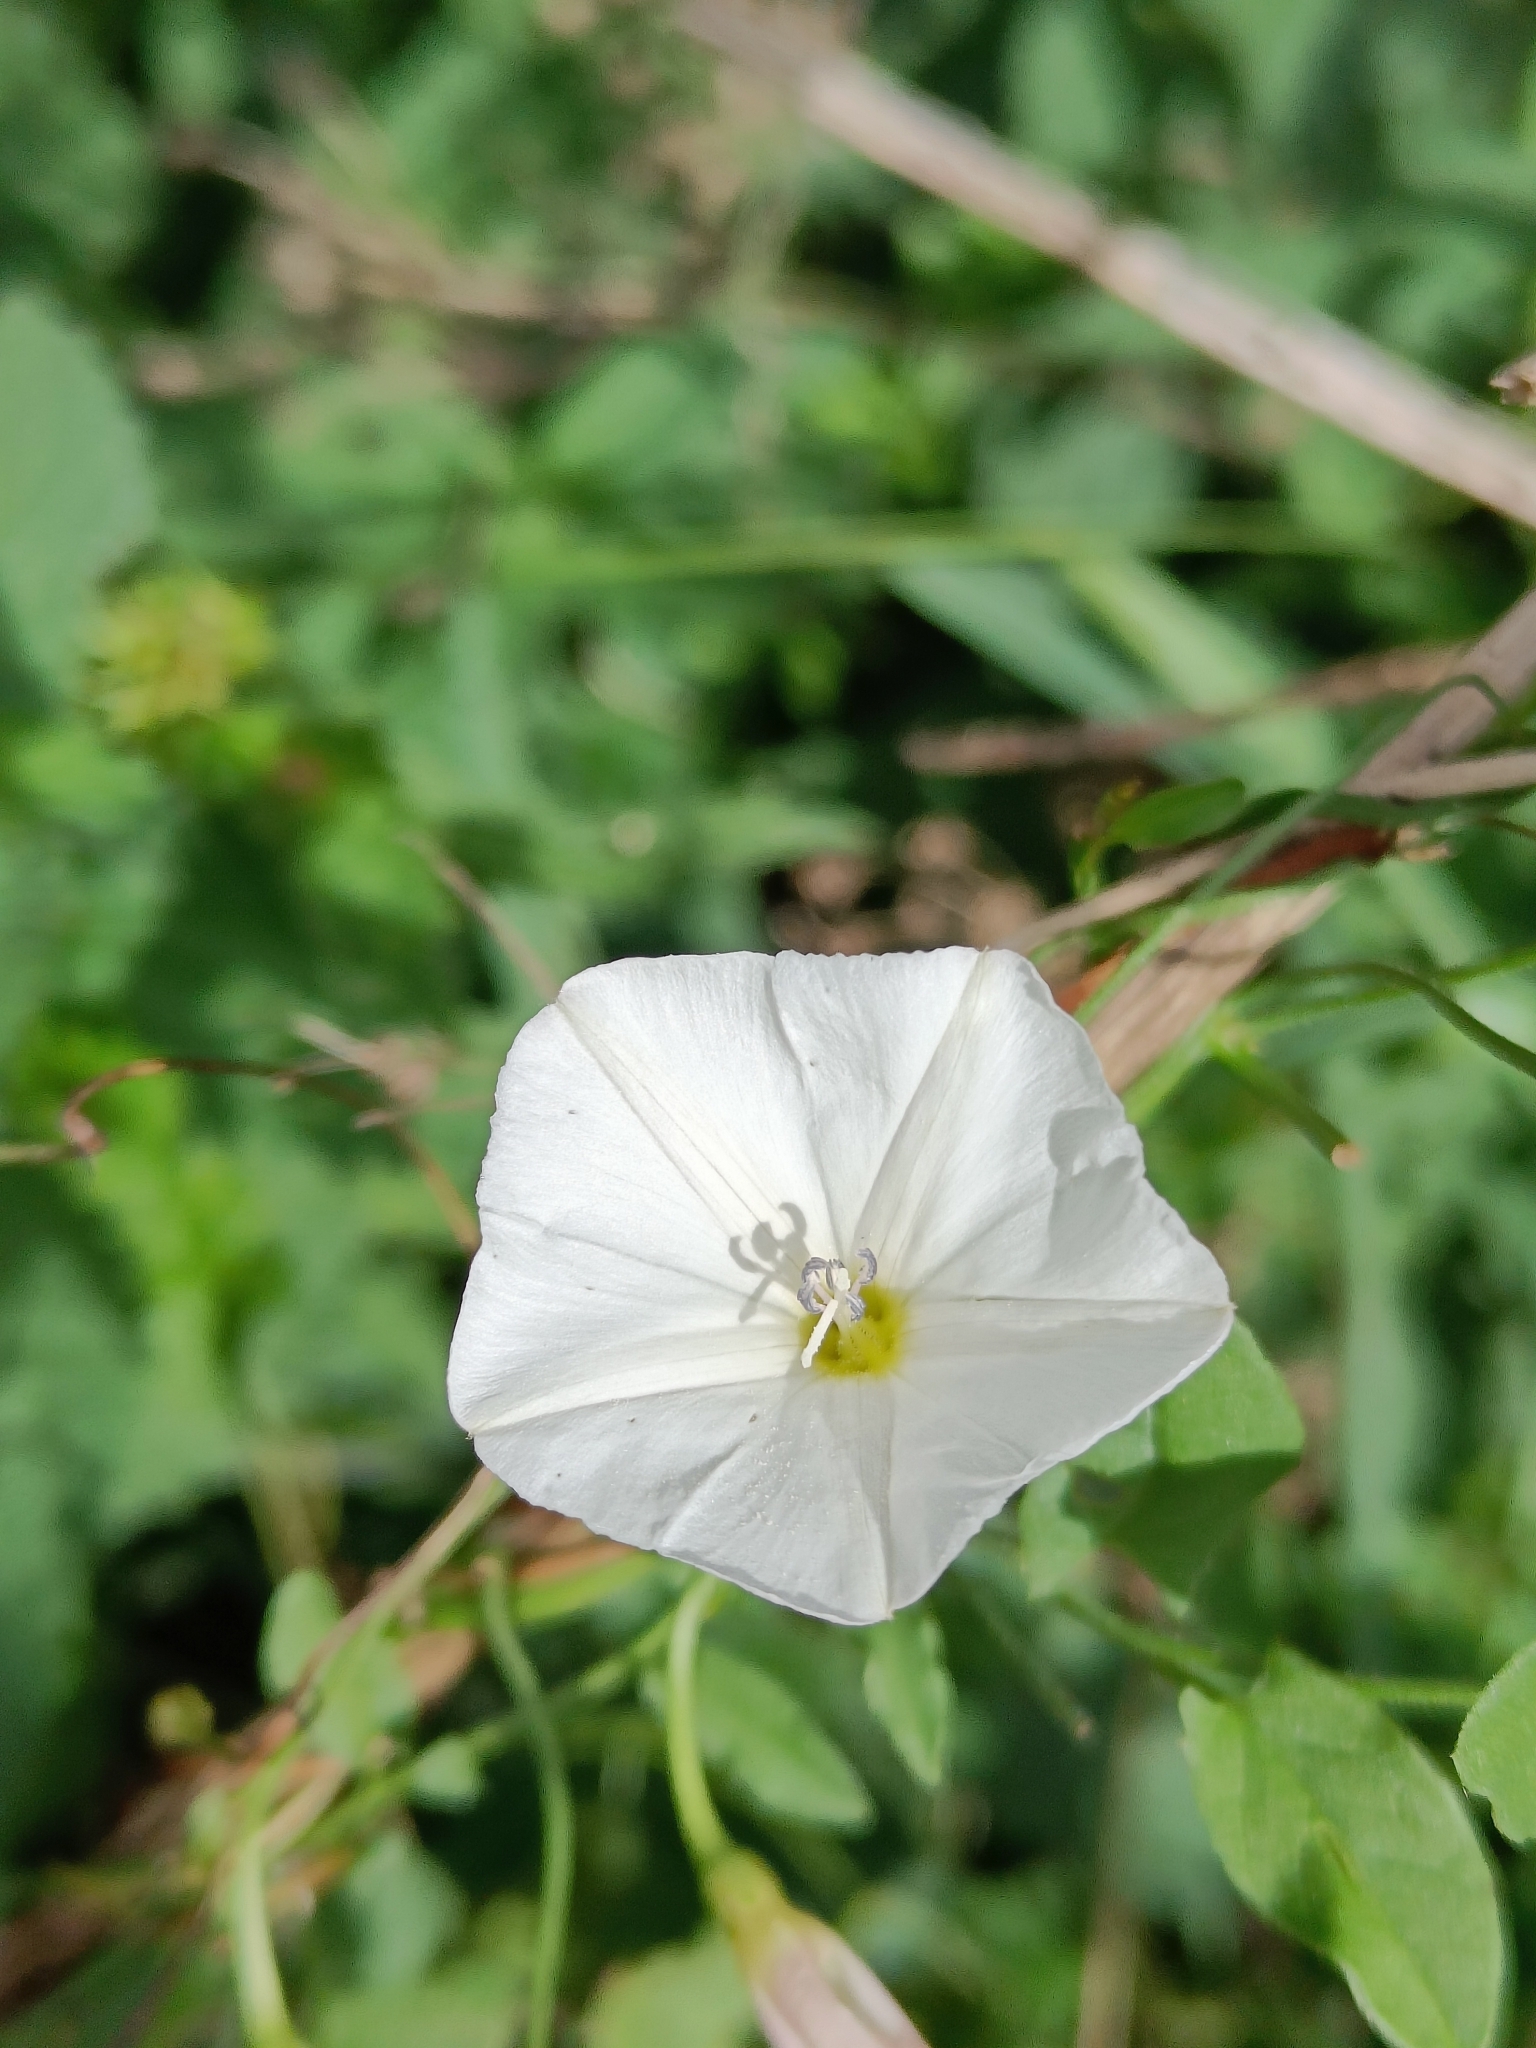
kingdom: Plantae
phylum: Tracheophyta
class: Magnoliopsida
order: Solanales
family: Convolvulaceae
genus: Convolvulus
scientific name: Convolvulus arvensis
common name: Field bindweed
